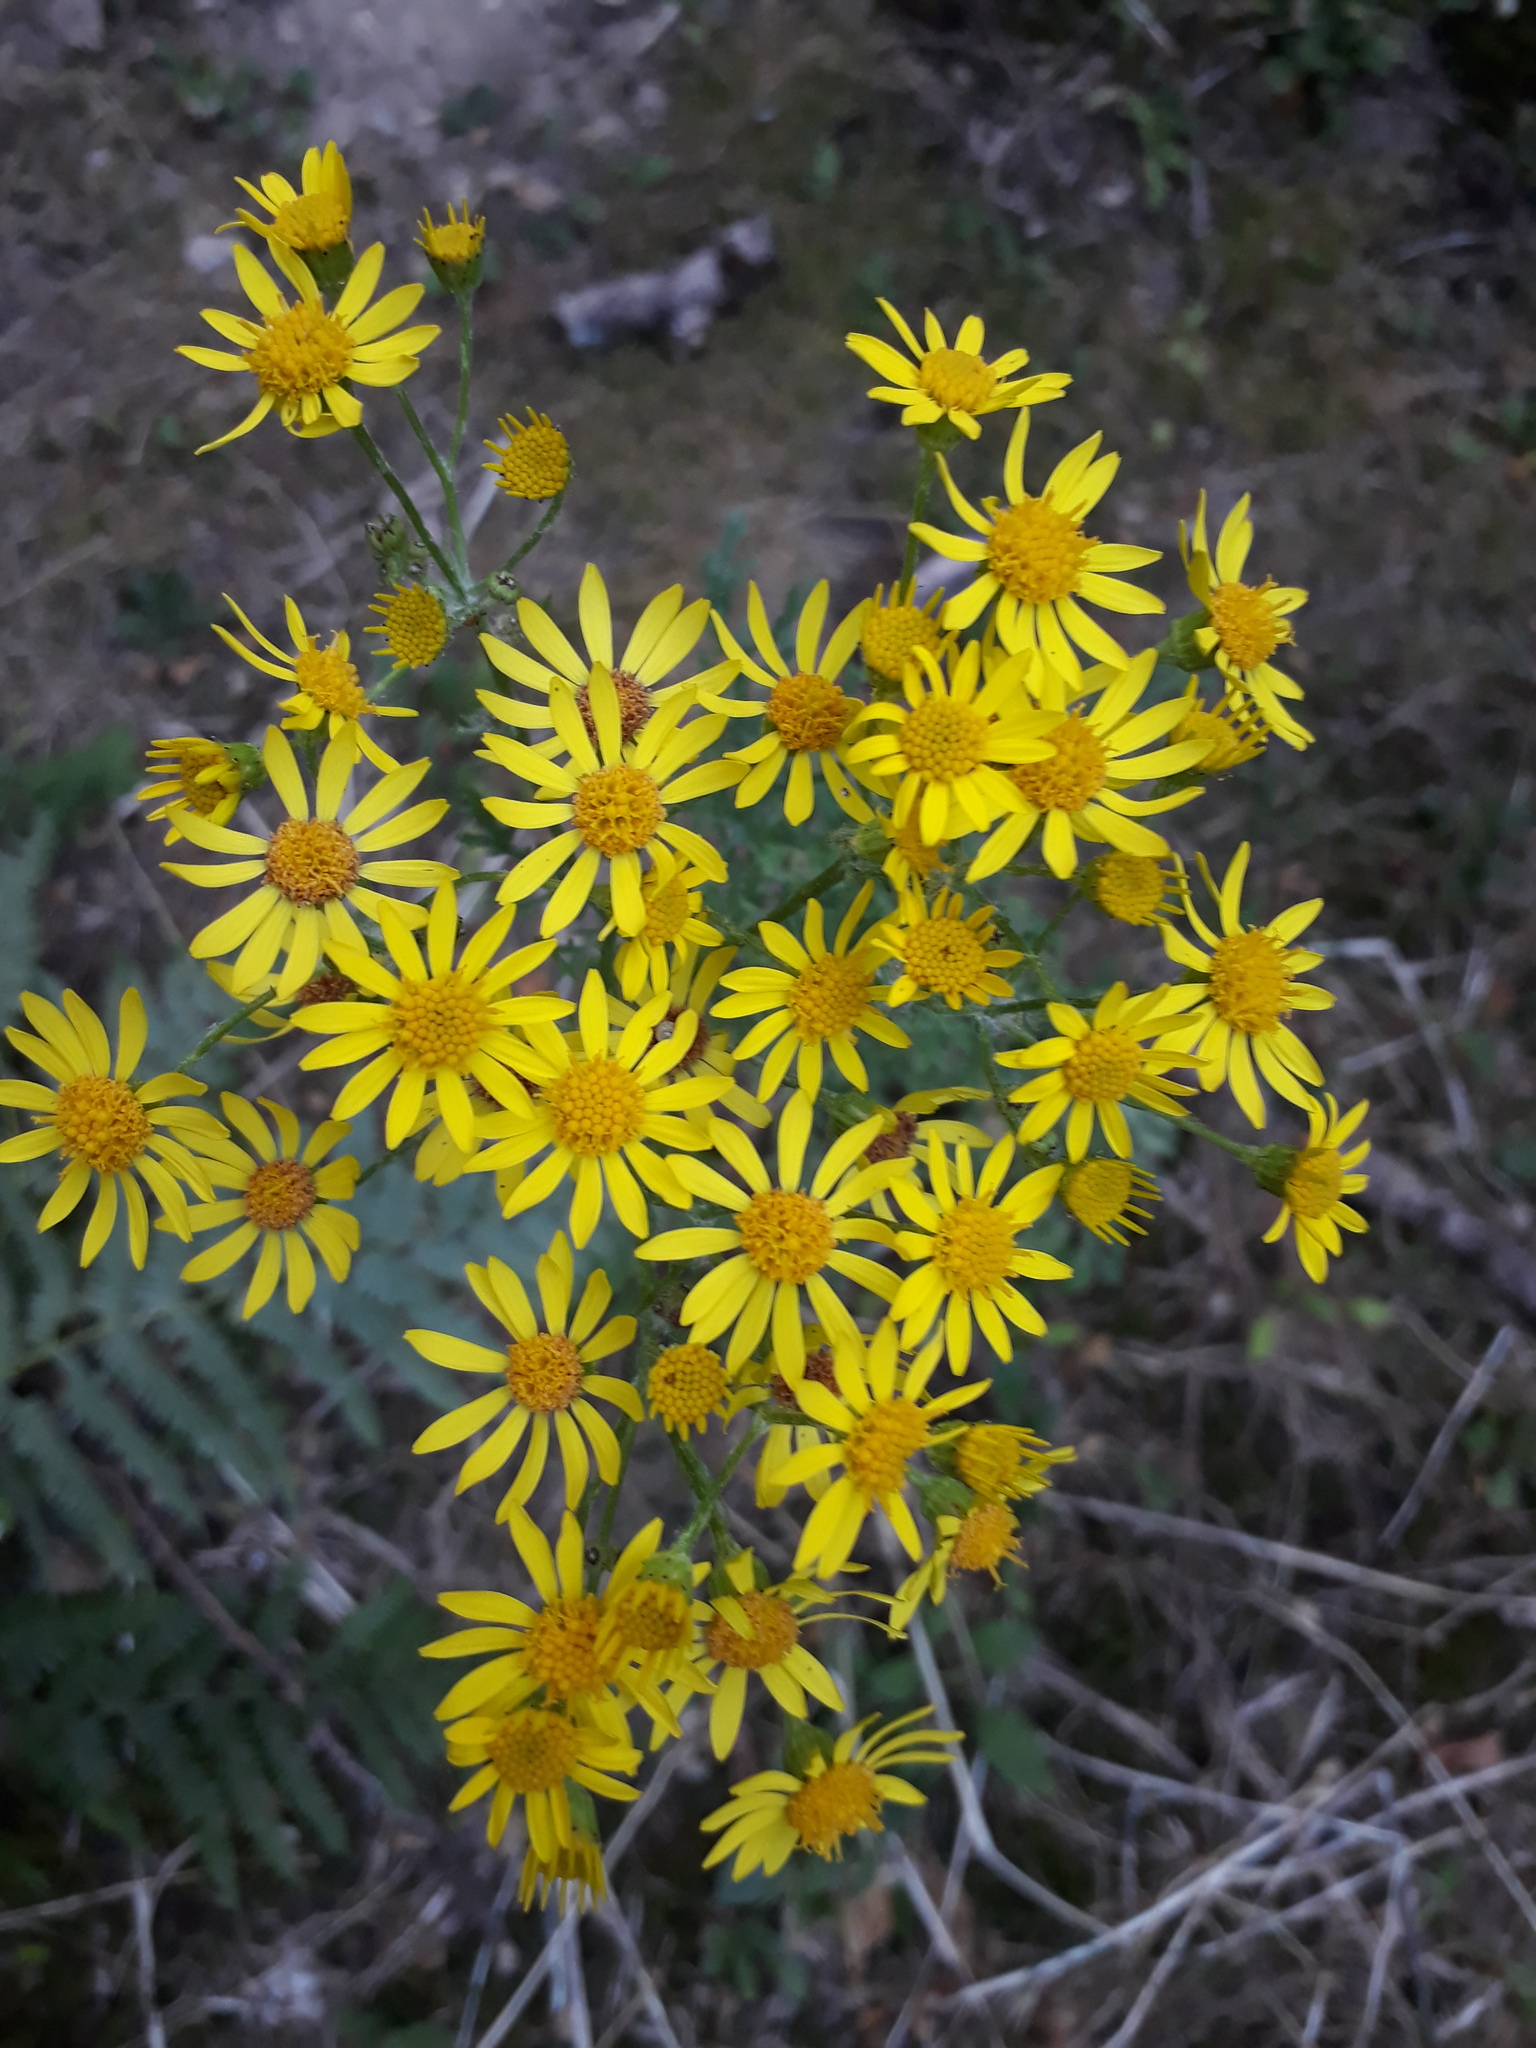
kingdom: Plantae
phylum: Tracheophyta
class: Magnoliopsida
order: Asterales
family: Asteraceae
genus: Jacobaea
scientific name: Jacobaea vulgaris
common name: Stinking willie
